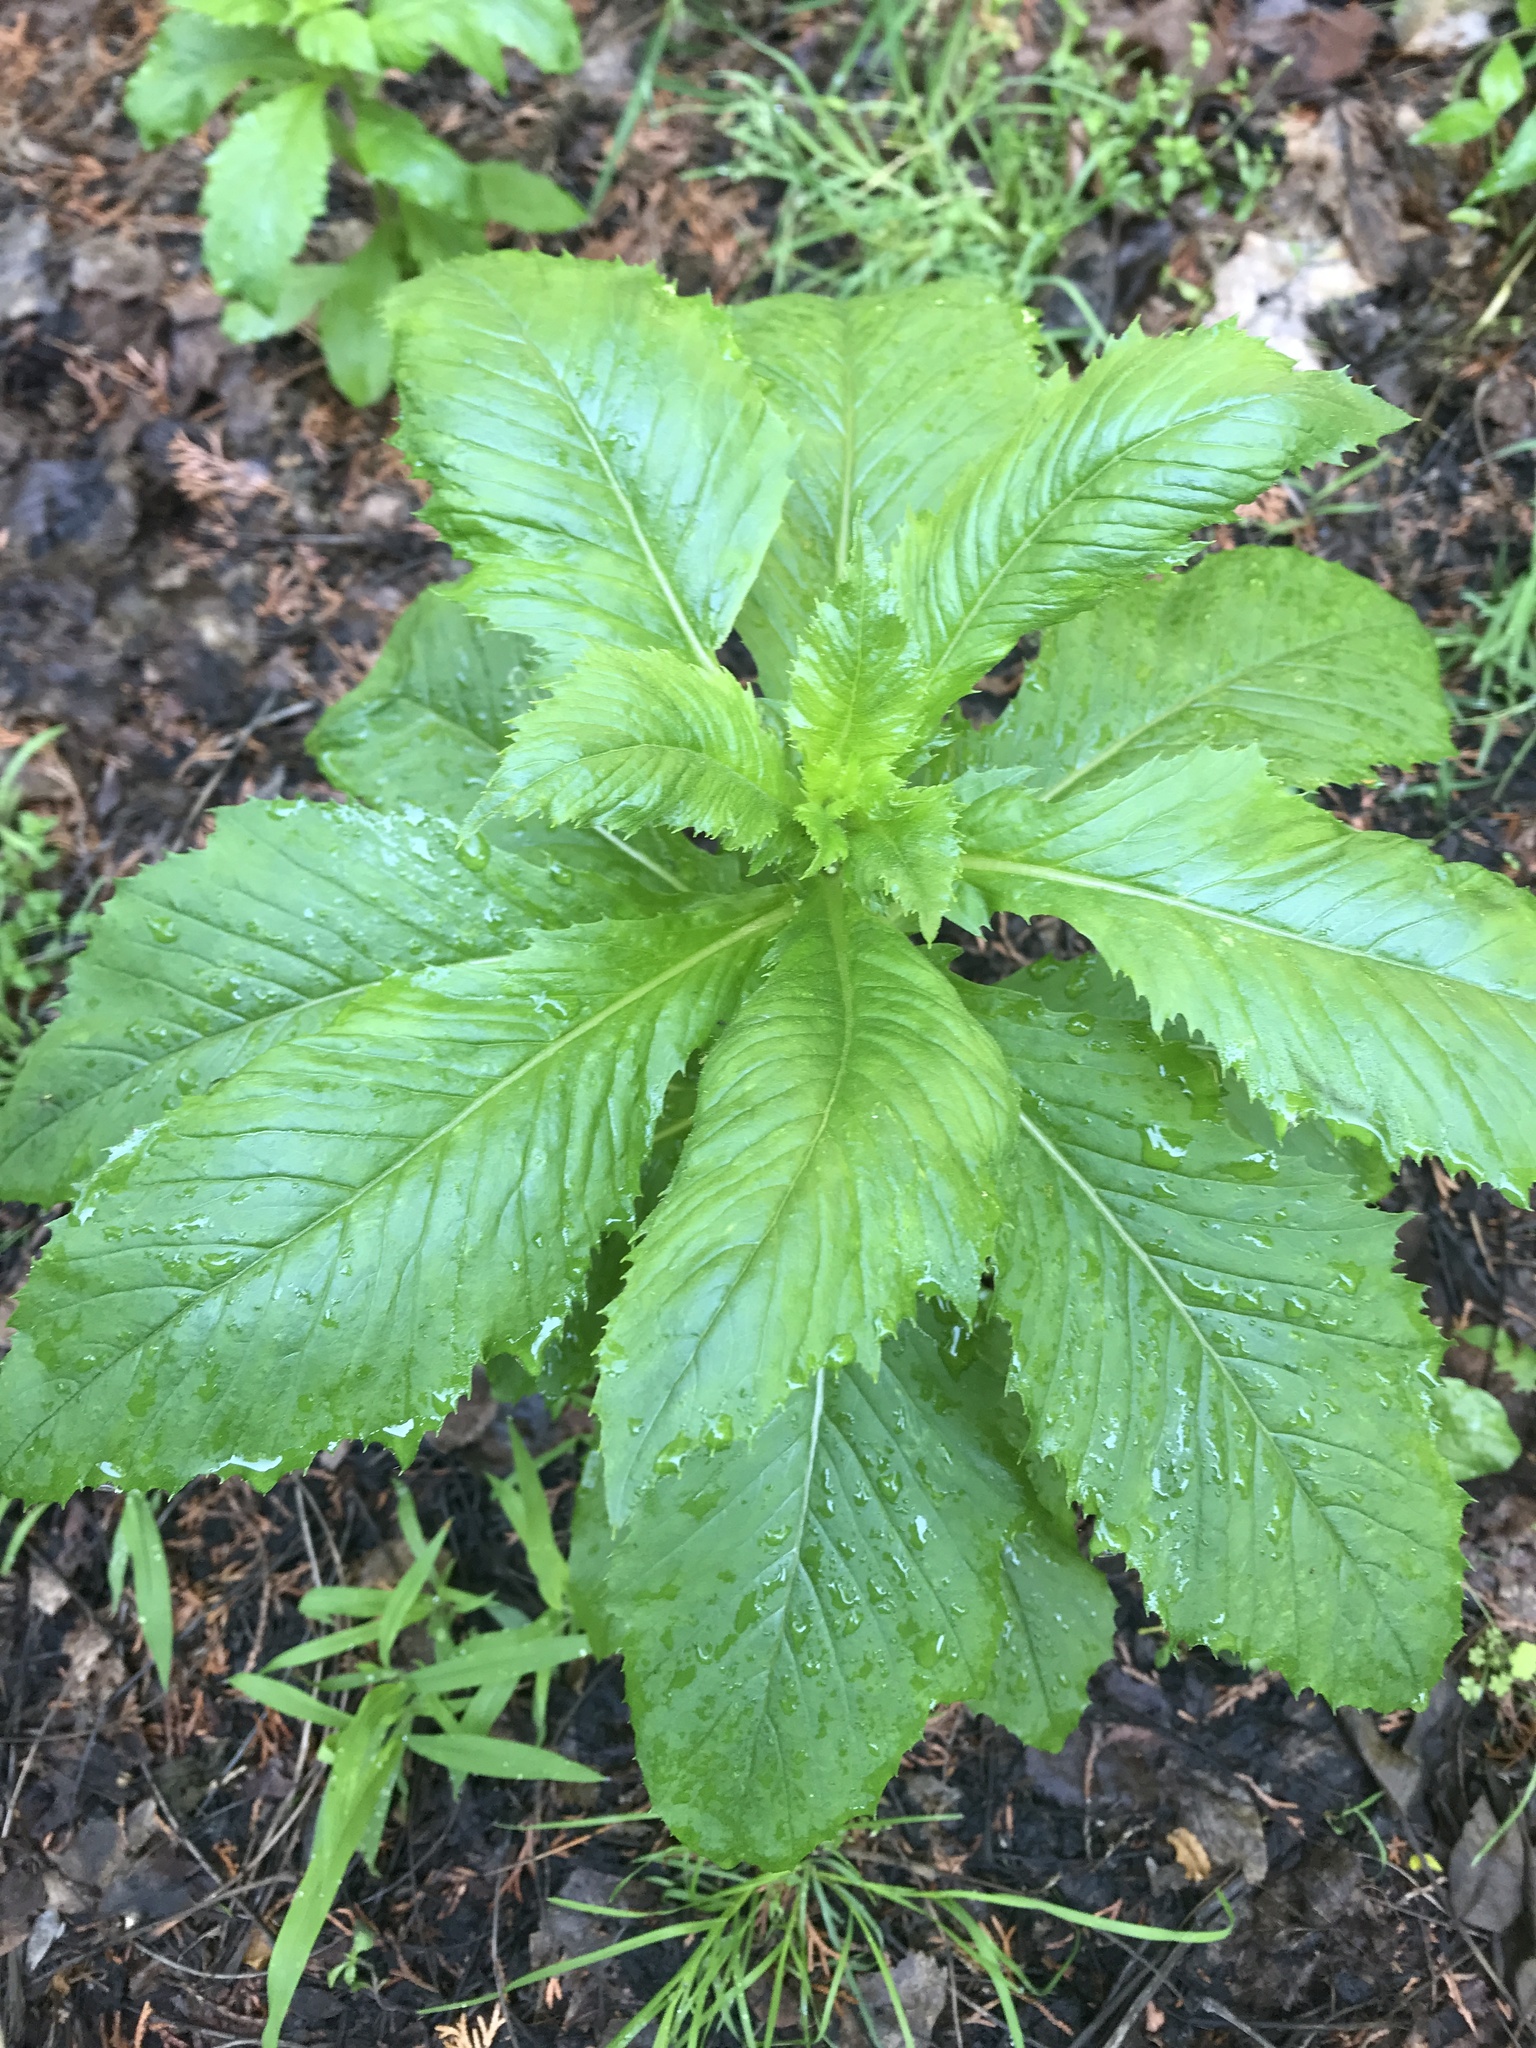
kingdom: Plantae
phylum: Tracheophyta
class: Magnoliopsida
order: Asterales
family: Asteraceae
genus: Erechtites
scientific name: Erechtites hieraciifolius
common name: American burnweed
